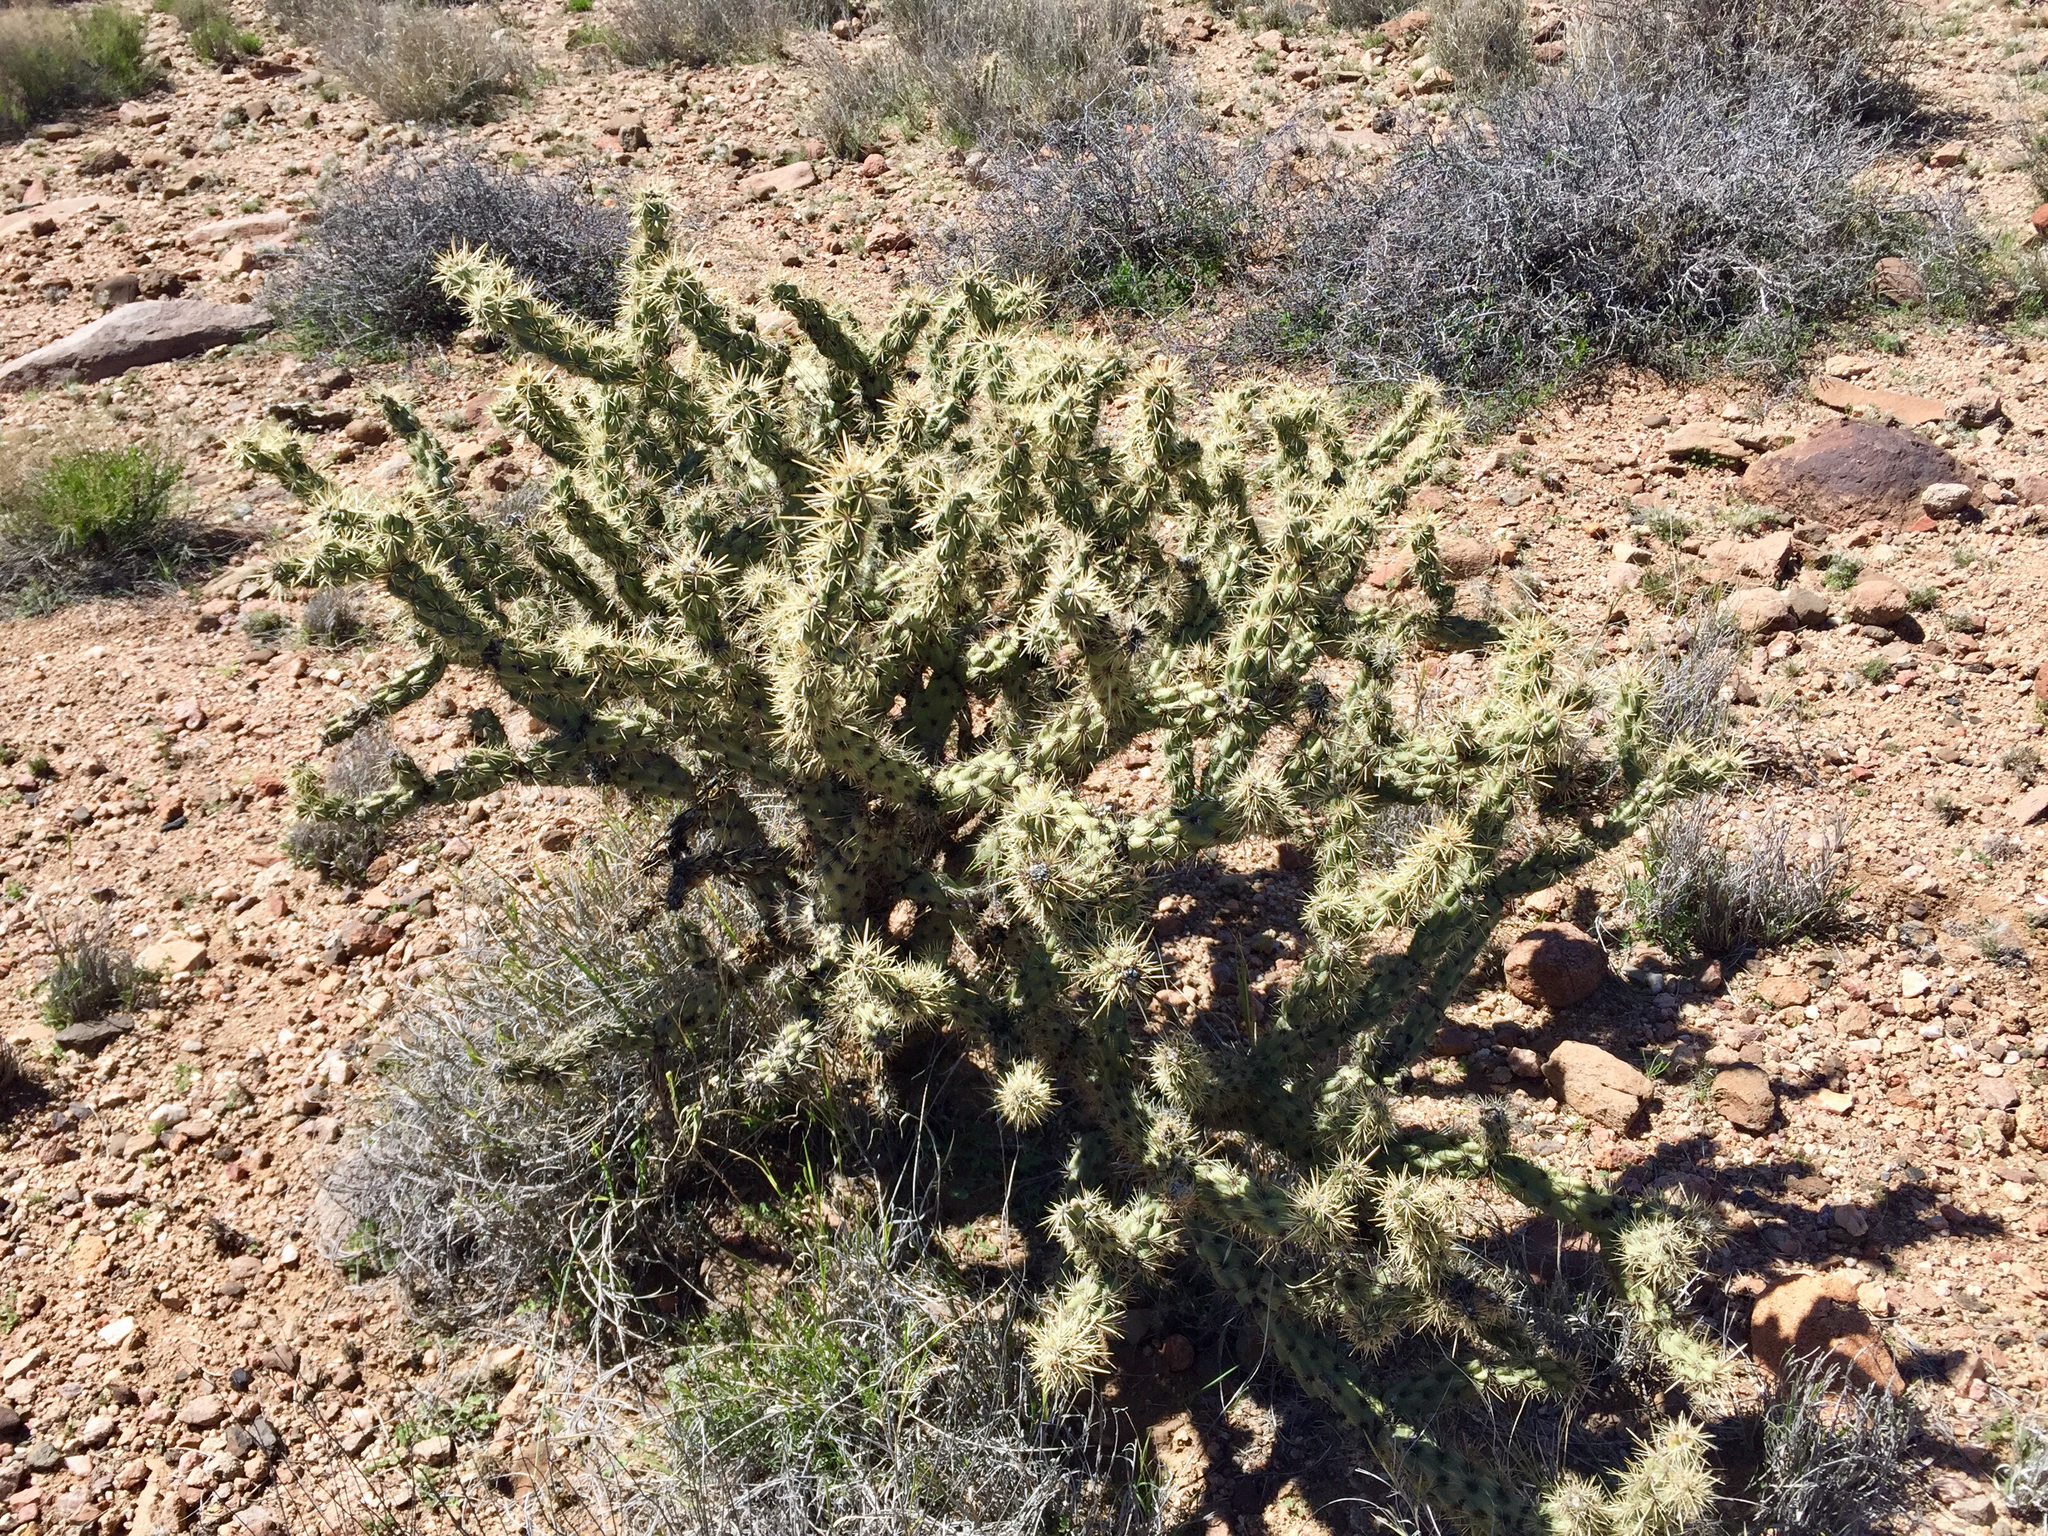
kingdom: Plantae
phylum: Tracheophyta
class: Magnoliopsida
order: Caryophyllales
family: Cactaceae
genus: Cylindropuntia
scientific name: Cylindropuntia acanthocarpa
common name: Buckhorn cholla
